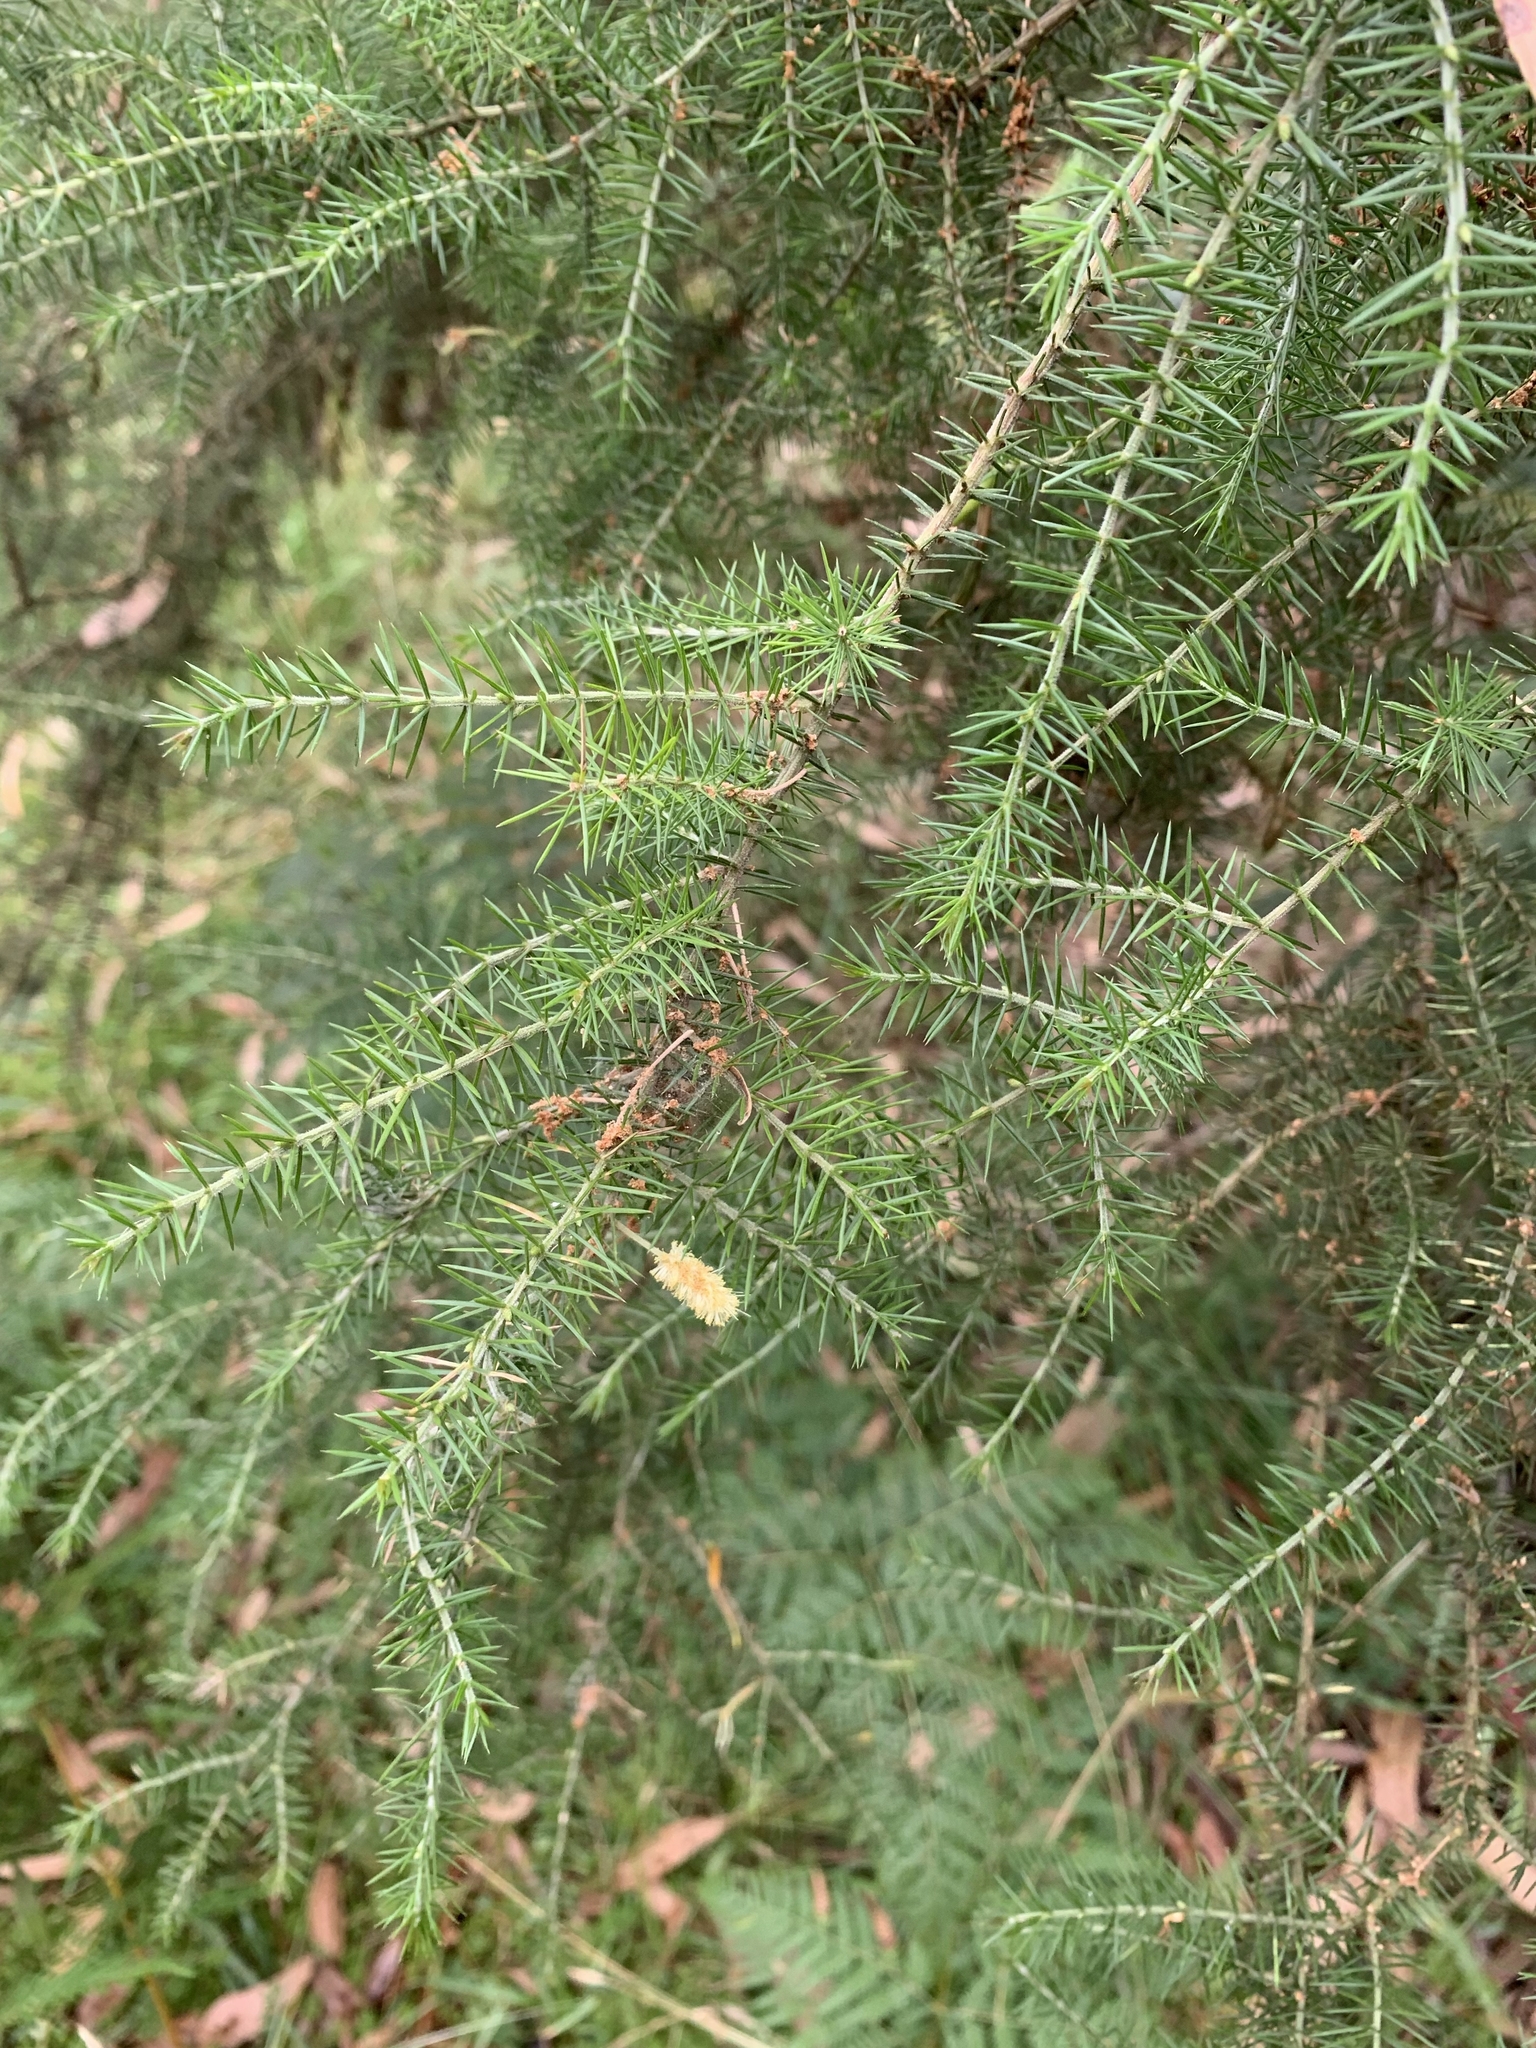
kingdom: Plantae
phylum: Tracheophyta
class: Magnoliopsida
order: Fabales
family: Fabaceae
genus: Acacia
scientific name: Acacia verticillata
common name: Prickly moses
